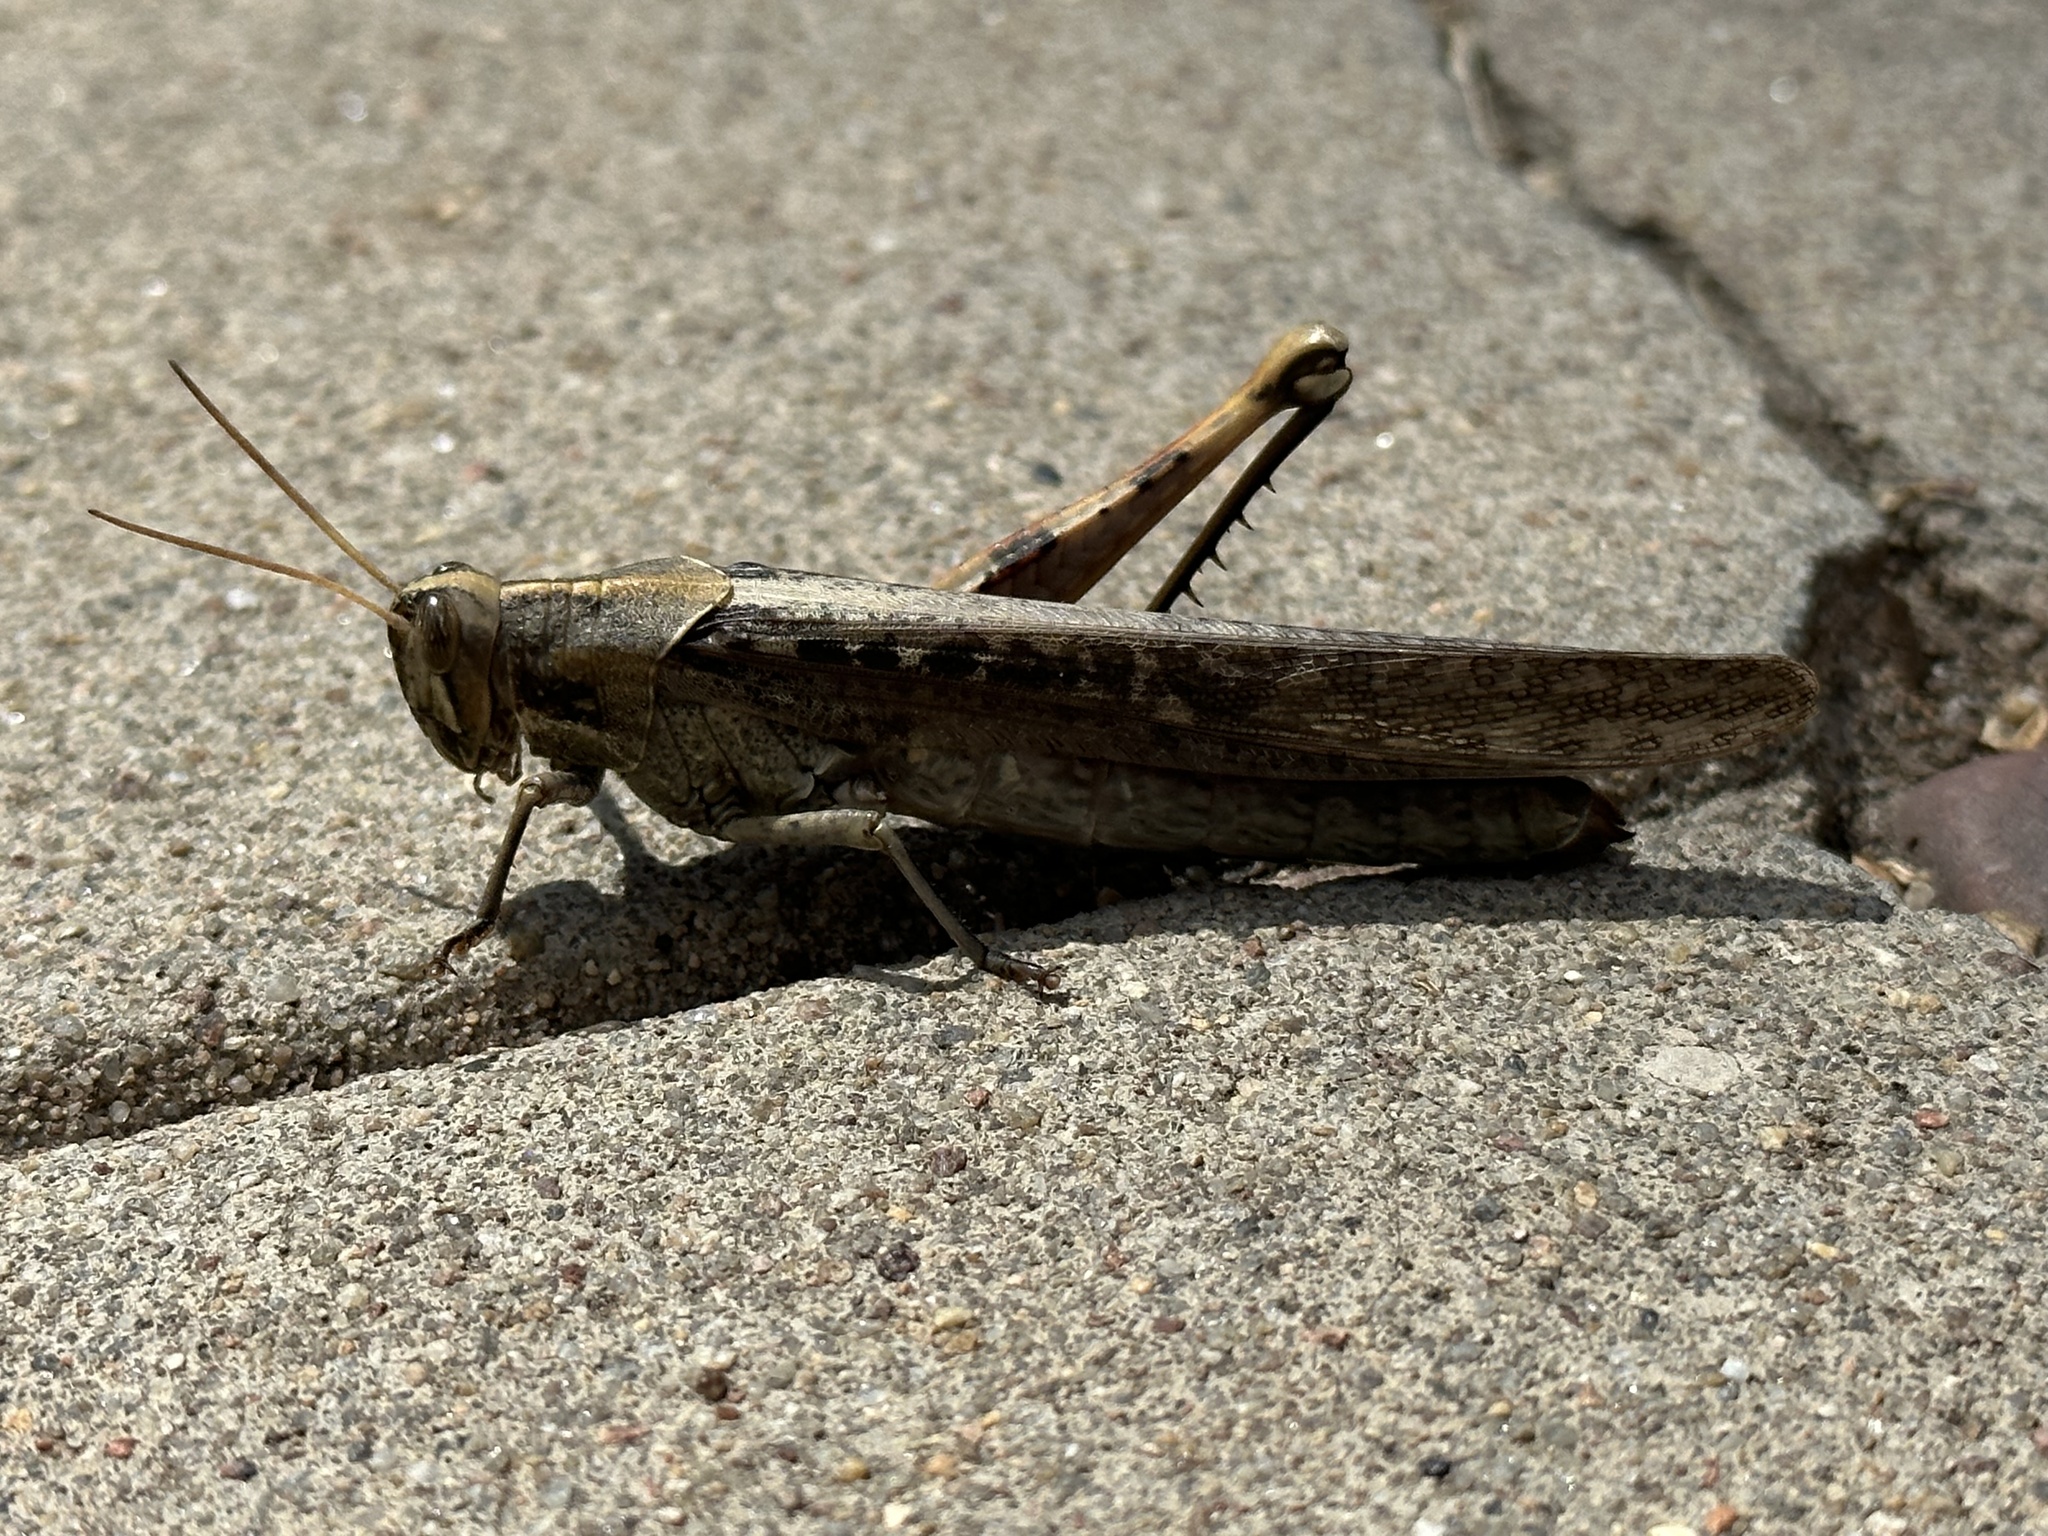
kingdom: Animalia
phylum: Arthropoda
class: Insecta
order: Orthoptera
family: Acrididae
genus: Schistocerca
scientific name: Schistocerca nitens
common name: Vagrant grasshopper
